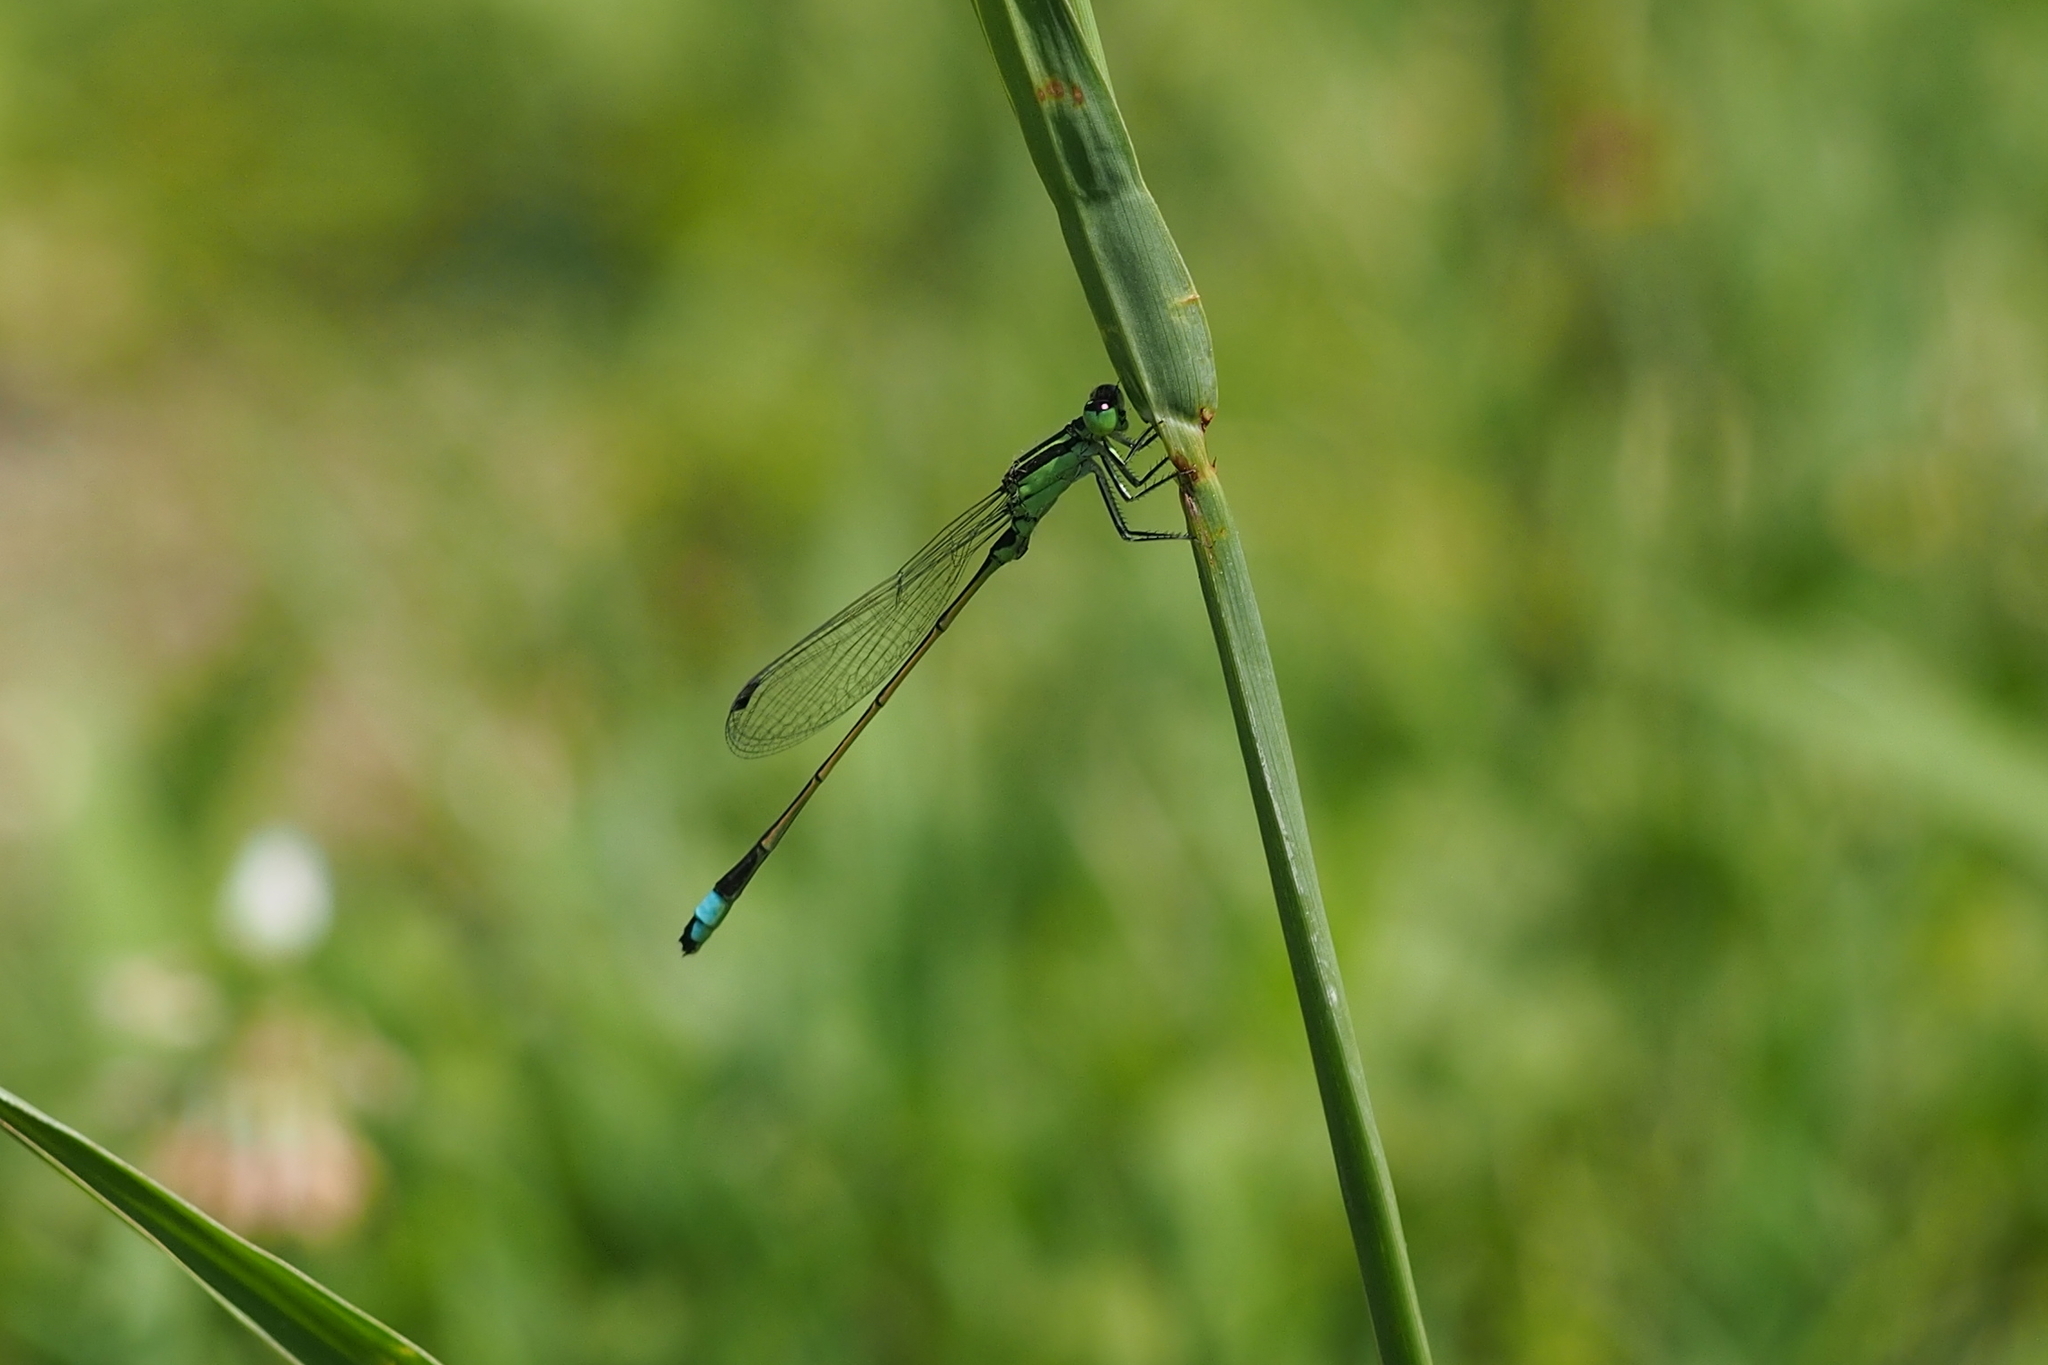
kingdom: Animalia
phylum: Arthropoda
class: Insecta
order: Odonata
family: Coenagrionidae
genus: Ischnura
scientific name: Ischnura senegalensis
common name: Tropical bluetail
